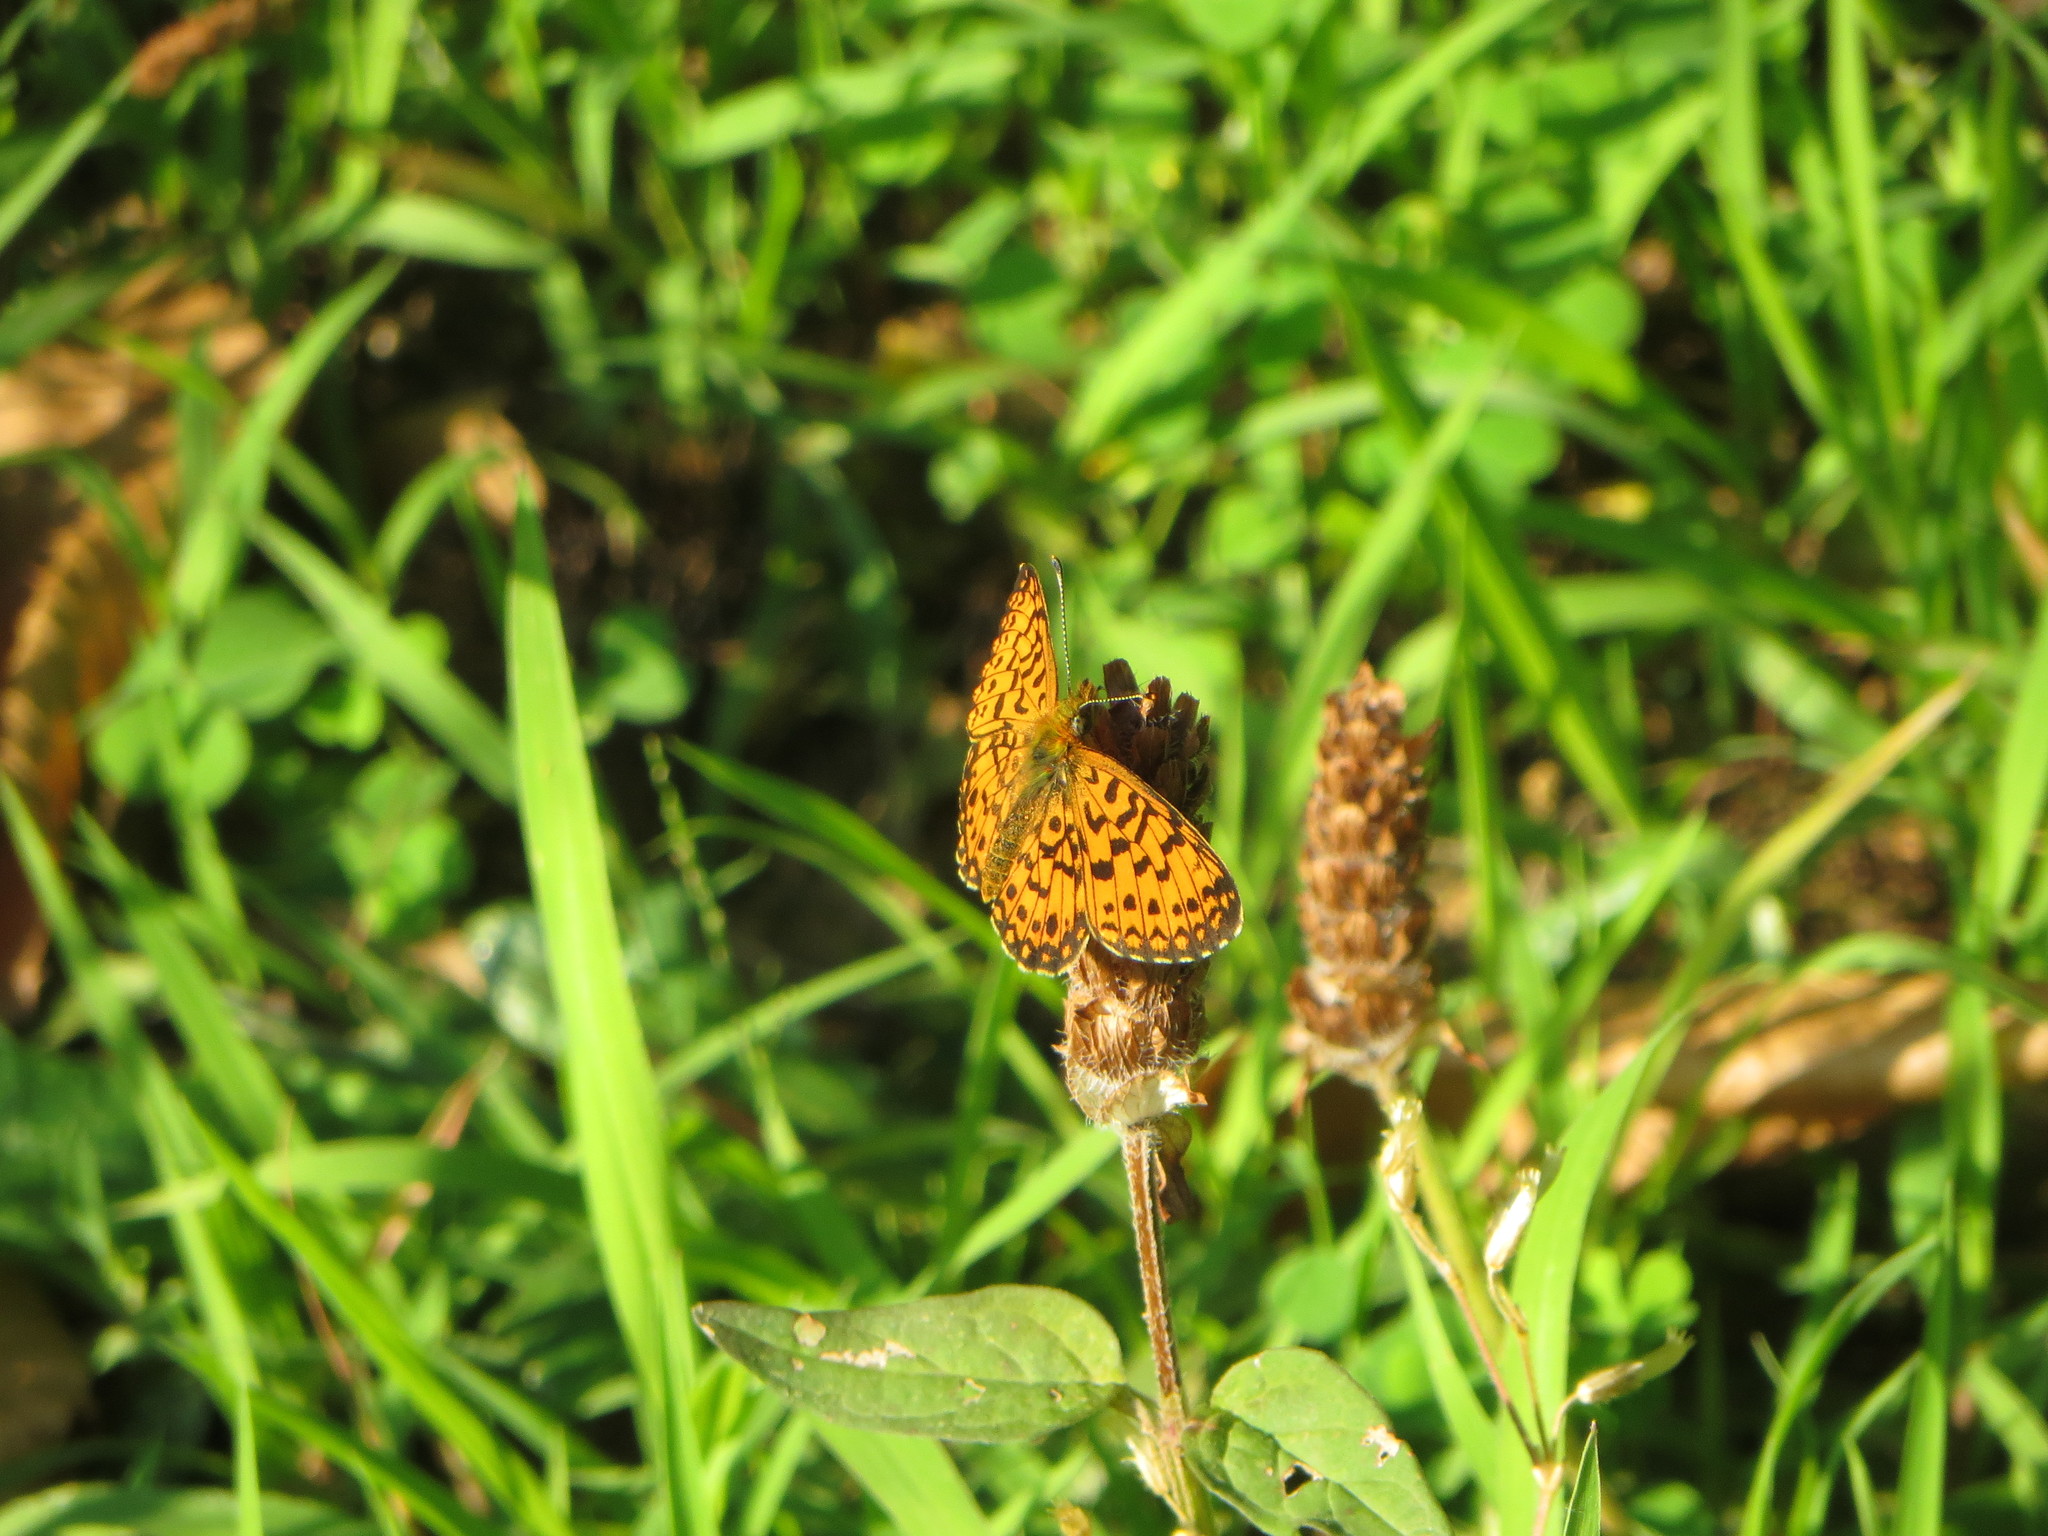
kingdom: Animalia
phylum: Arthropoda
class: Insecta
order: Lepidoptera
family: Nymphalidae
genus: Boloria
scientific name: Boloria selene
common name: Small pearl-bordered fritillary
